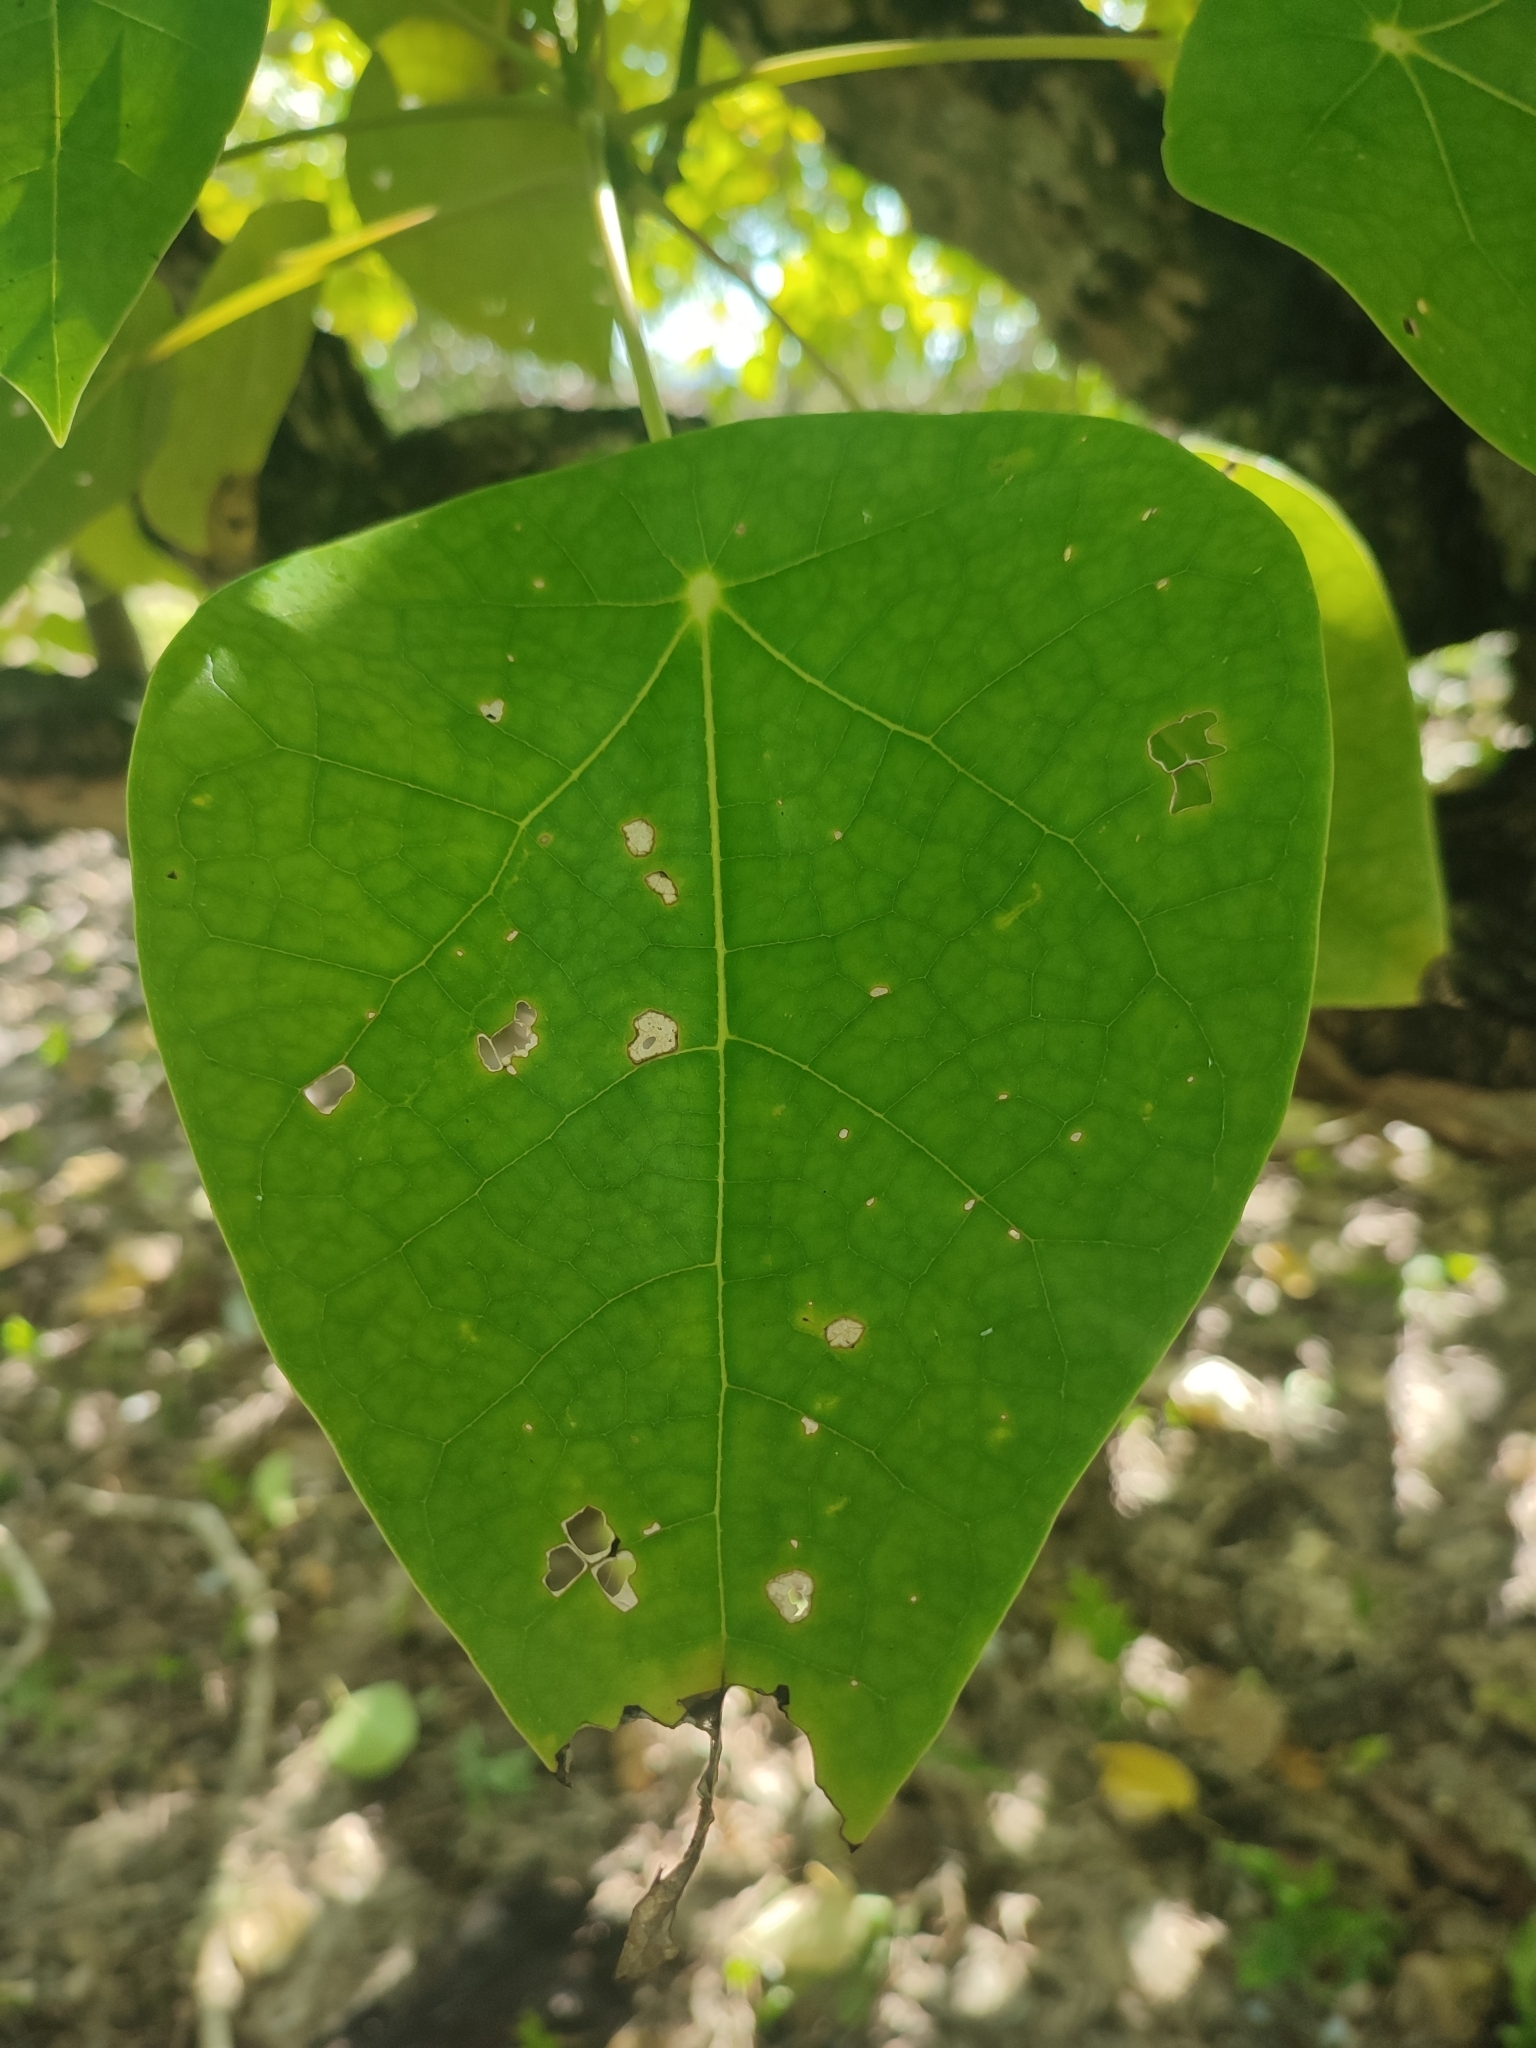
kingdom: Plantae
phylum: Tracheophyta
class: Magnoliopsida
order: Laurales
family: Hernandiaceae
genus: Hernandia
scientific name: Hernandia nymphaeifolia
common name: Sea hearse
